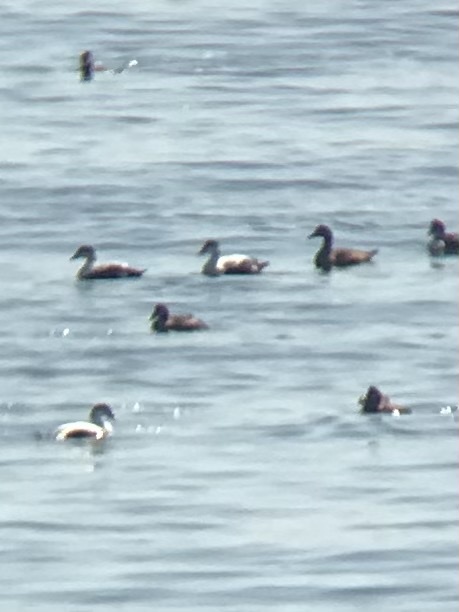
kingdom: Animalia
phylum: Chordata
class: Aves
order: Anseriformes
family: Anatidae
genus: Somateria
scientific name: Somateria mollissima
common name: Common eider
